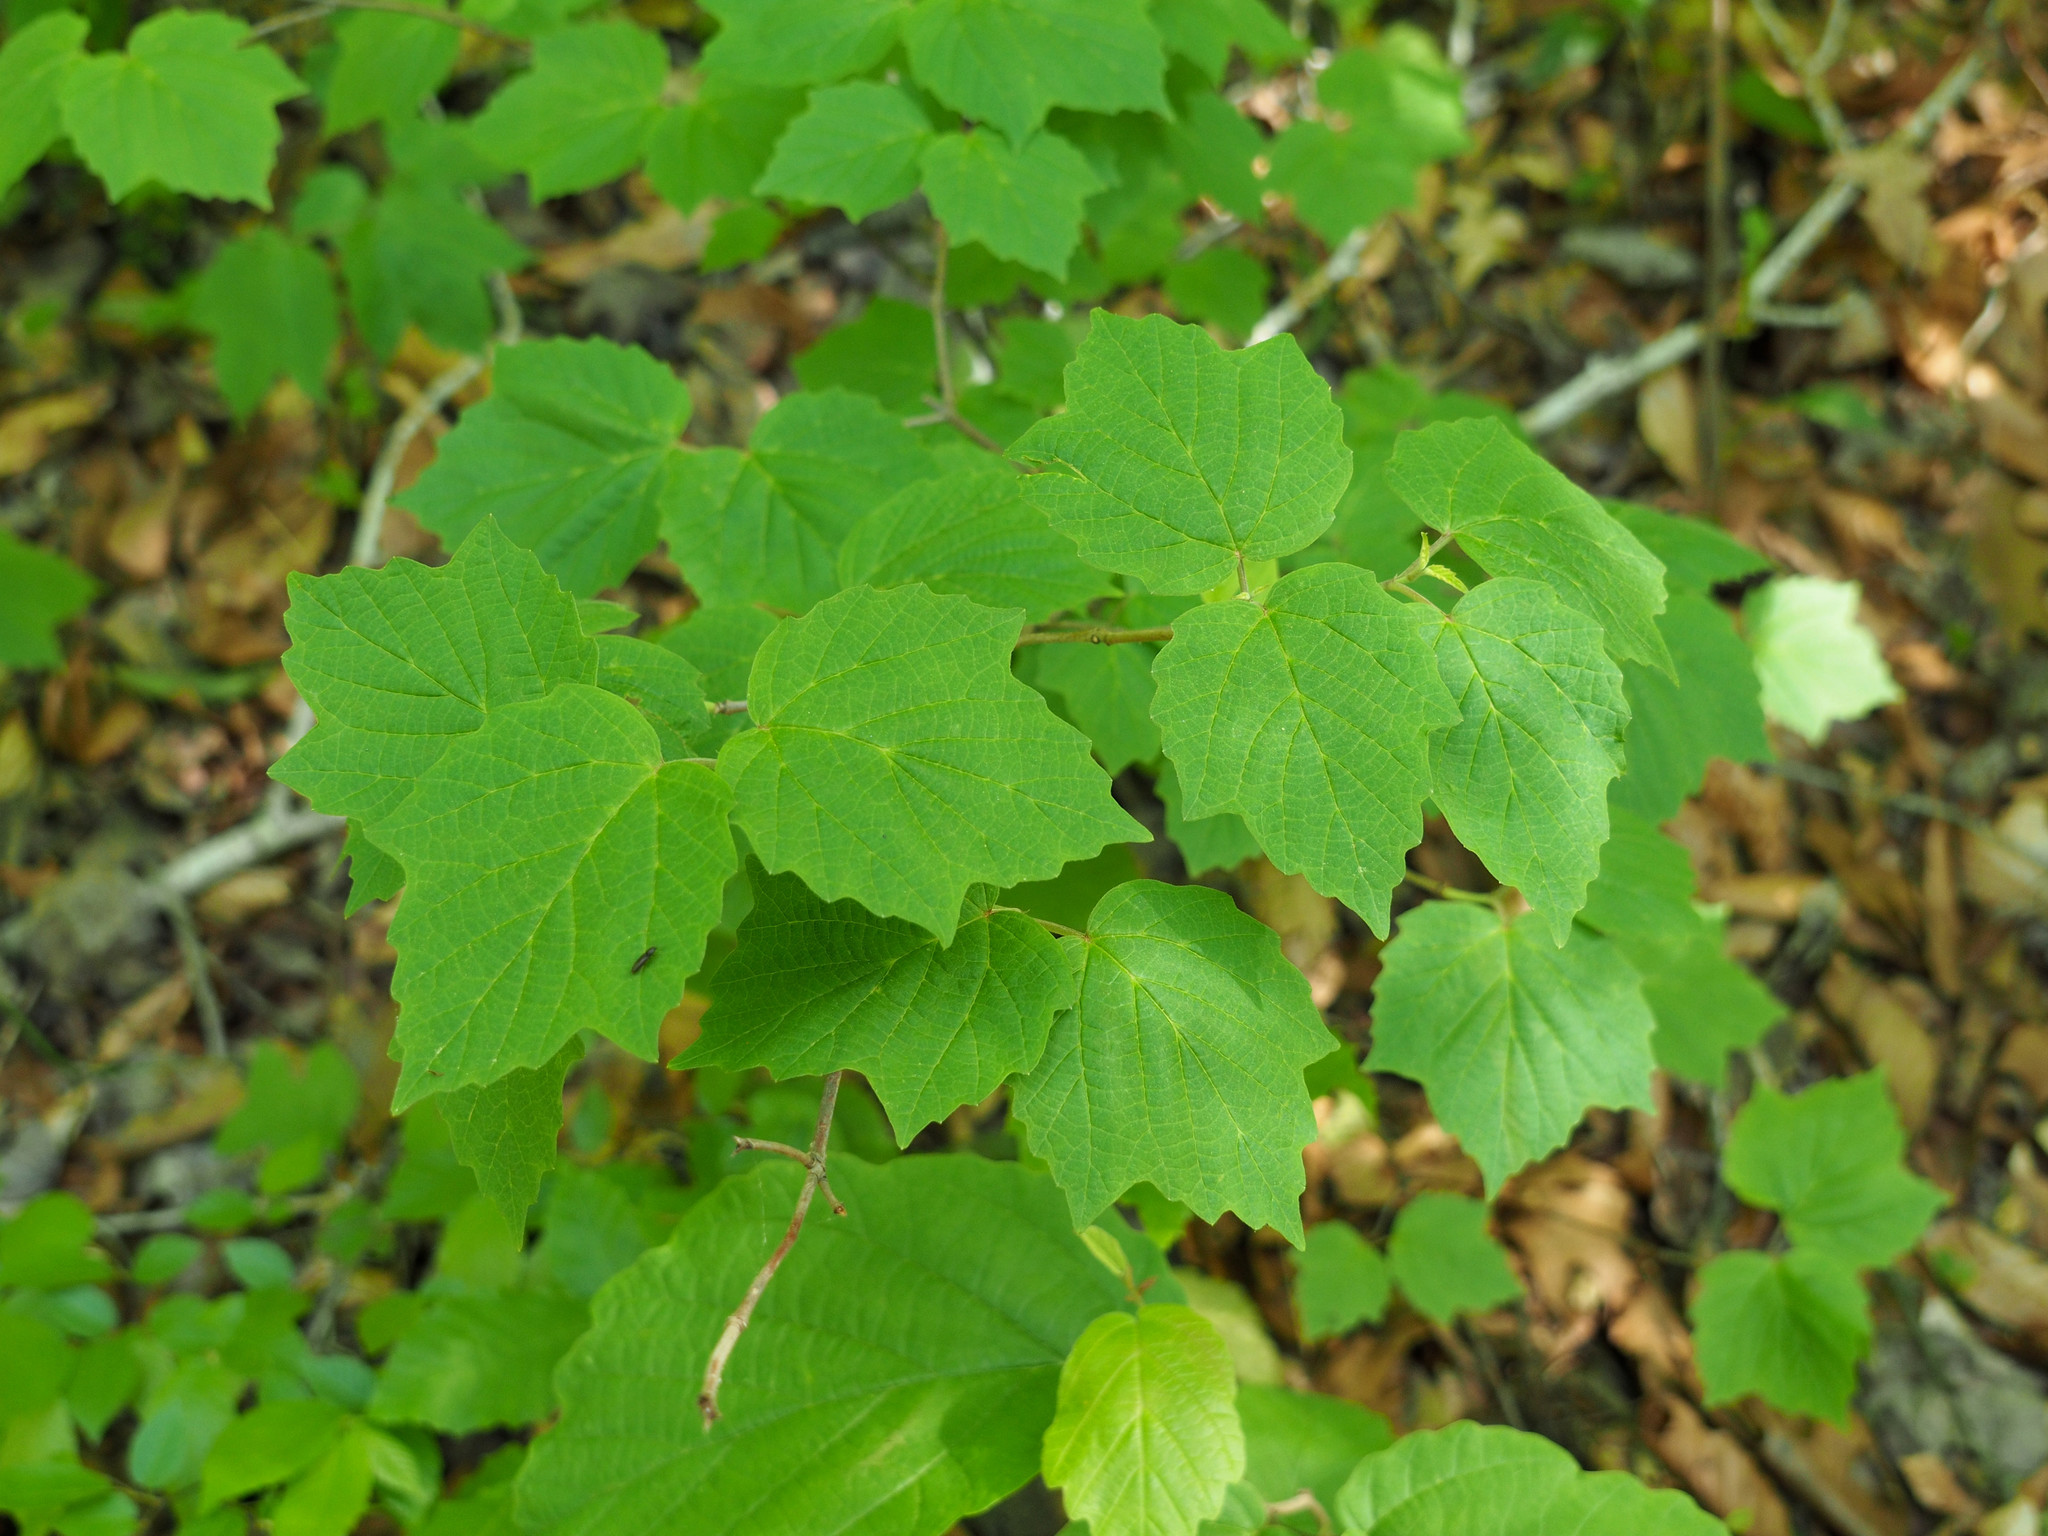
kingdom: Plantae
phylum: Tracheophyta
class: Magnoliopsida
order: Dipsacales
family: Viburnaceae
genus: Viburnum
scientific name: Viburnum acerifolium
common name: Dockmackie
